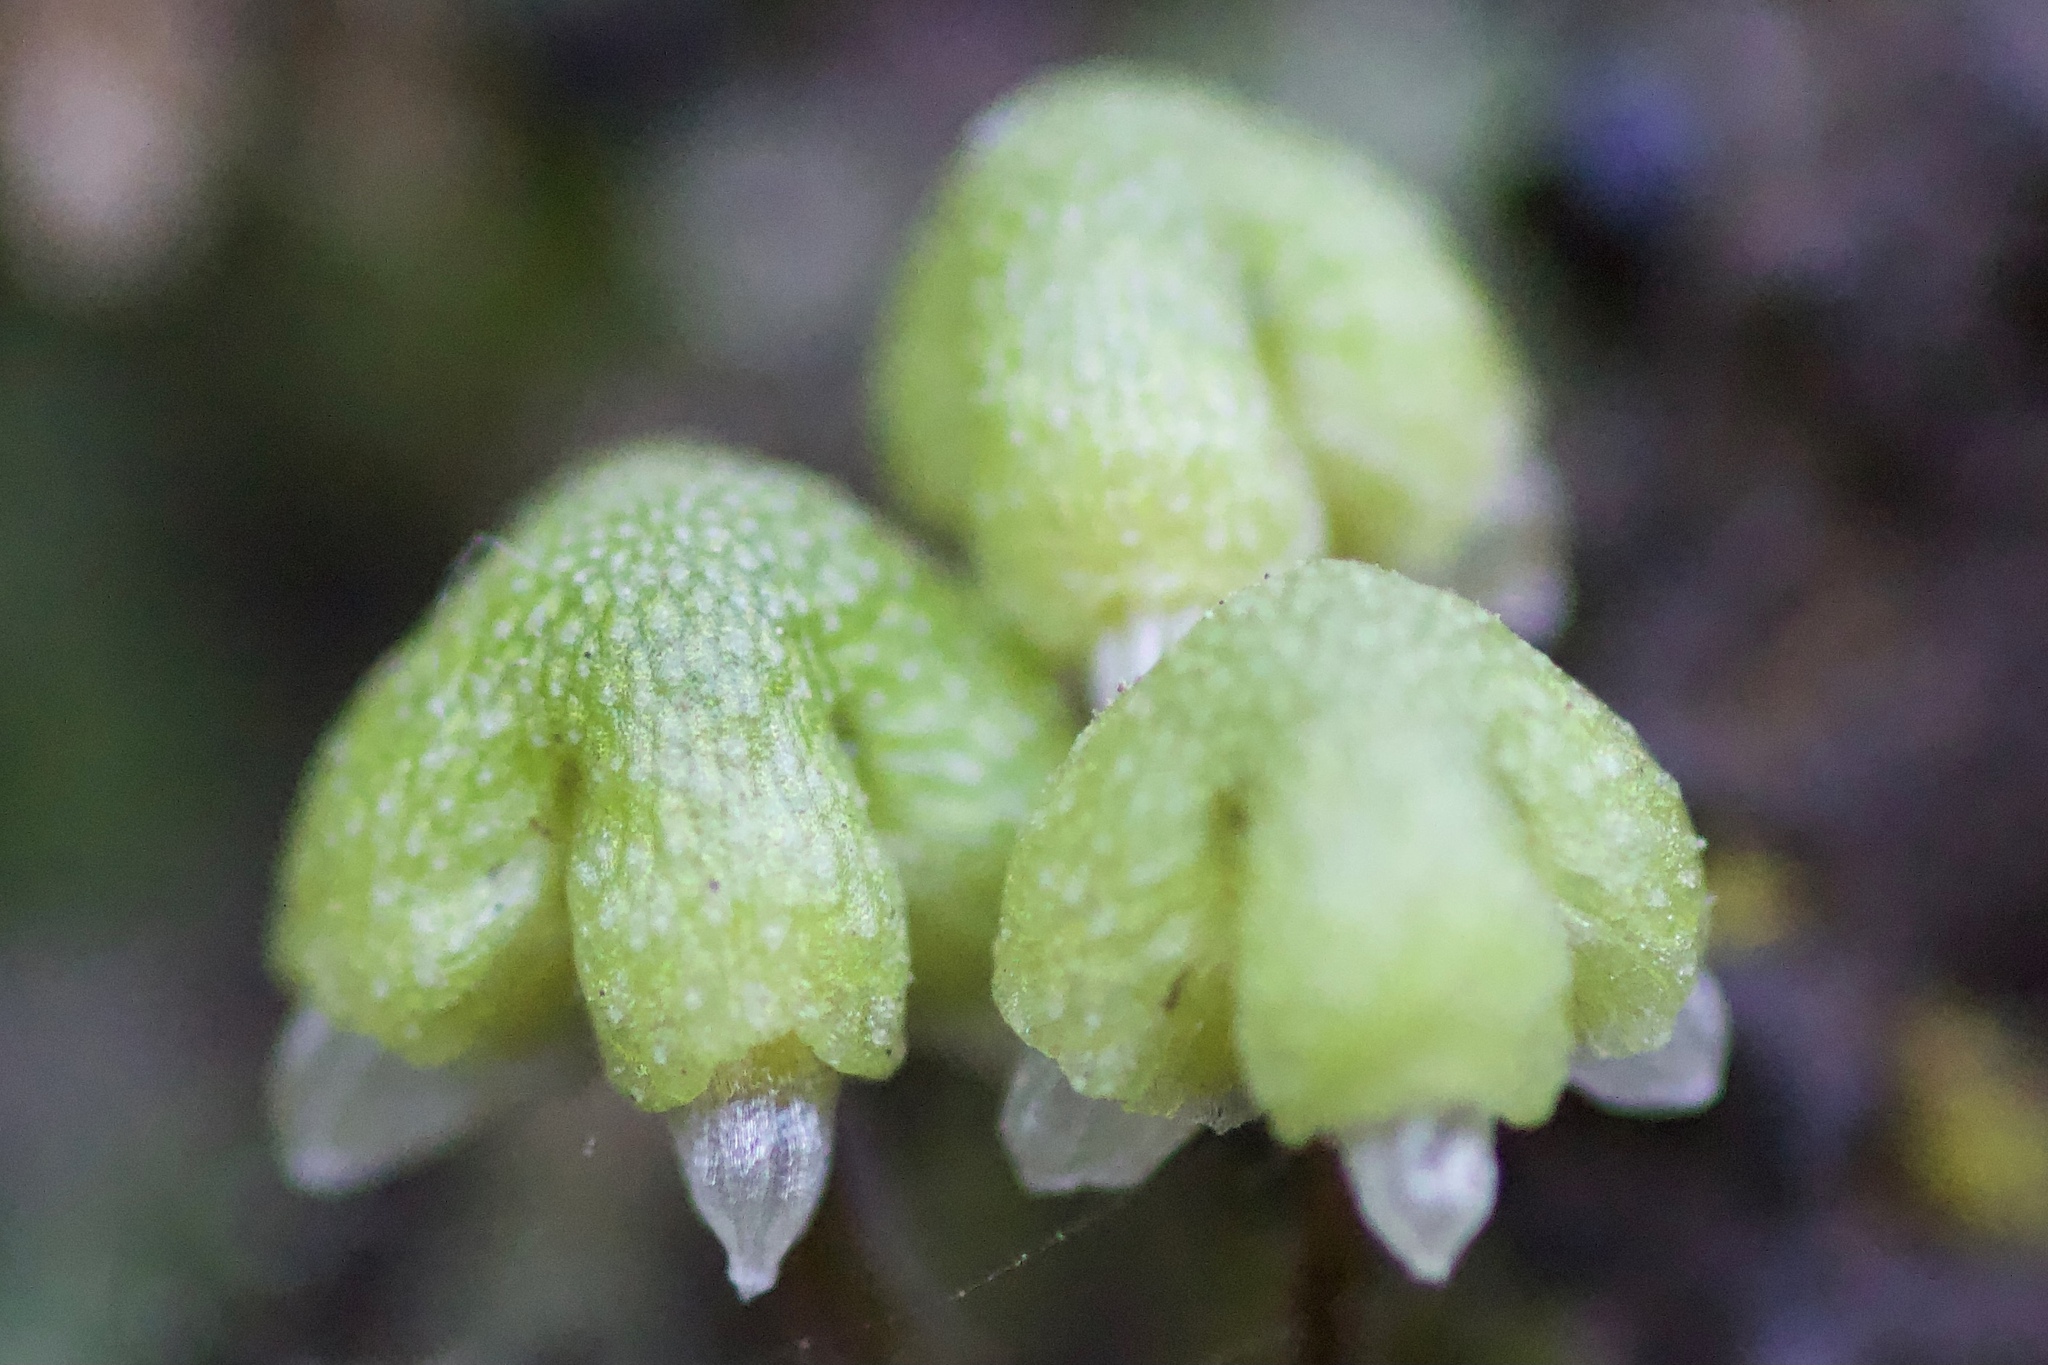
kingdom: Plantae
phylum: Marchantiophyta
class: Marchantiopsida
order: Marchantiales
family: Aytoniaceae
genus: Asterella
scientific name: Asterella californica
